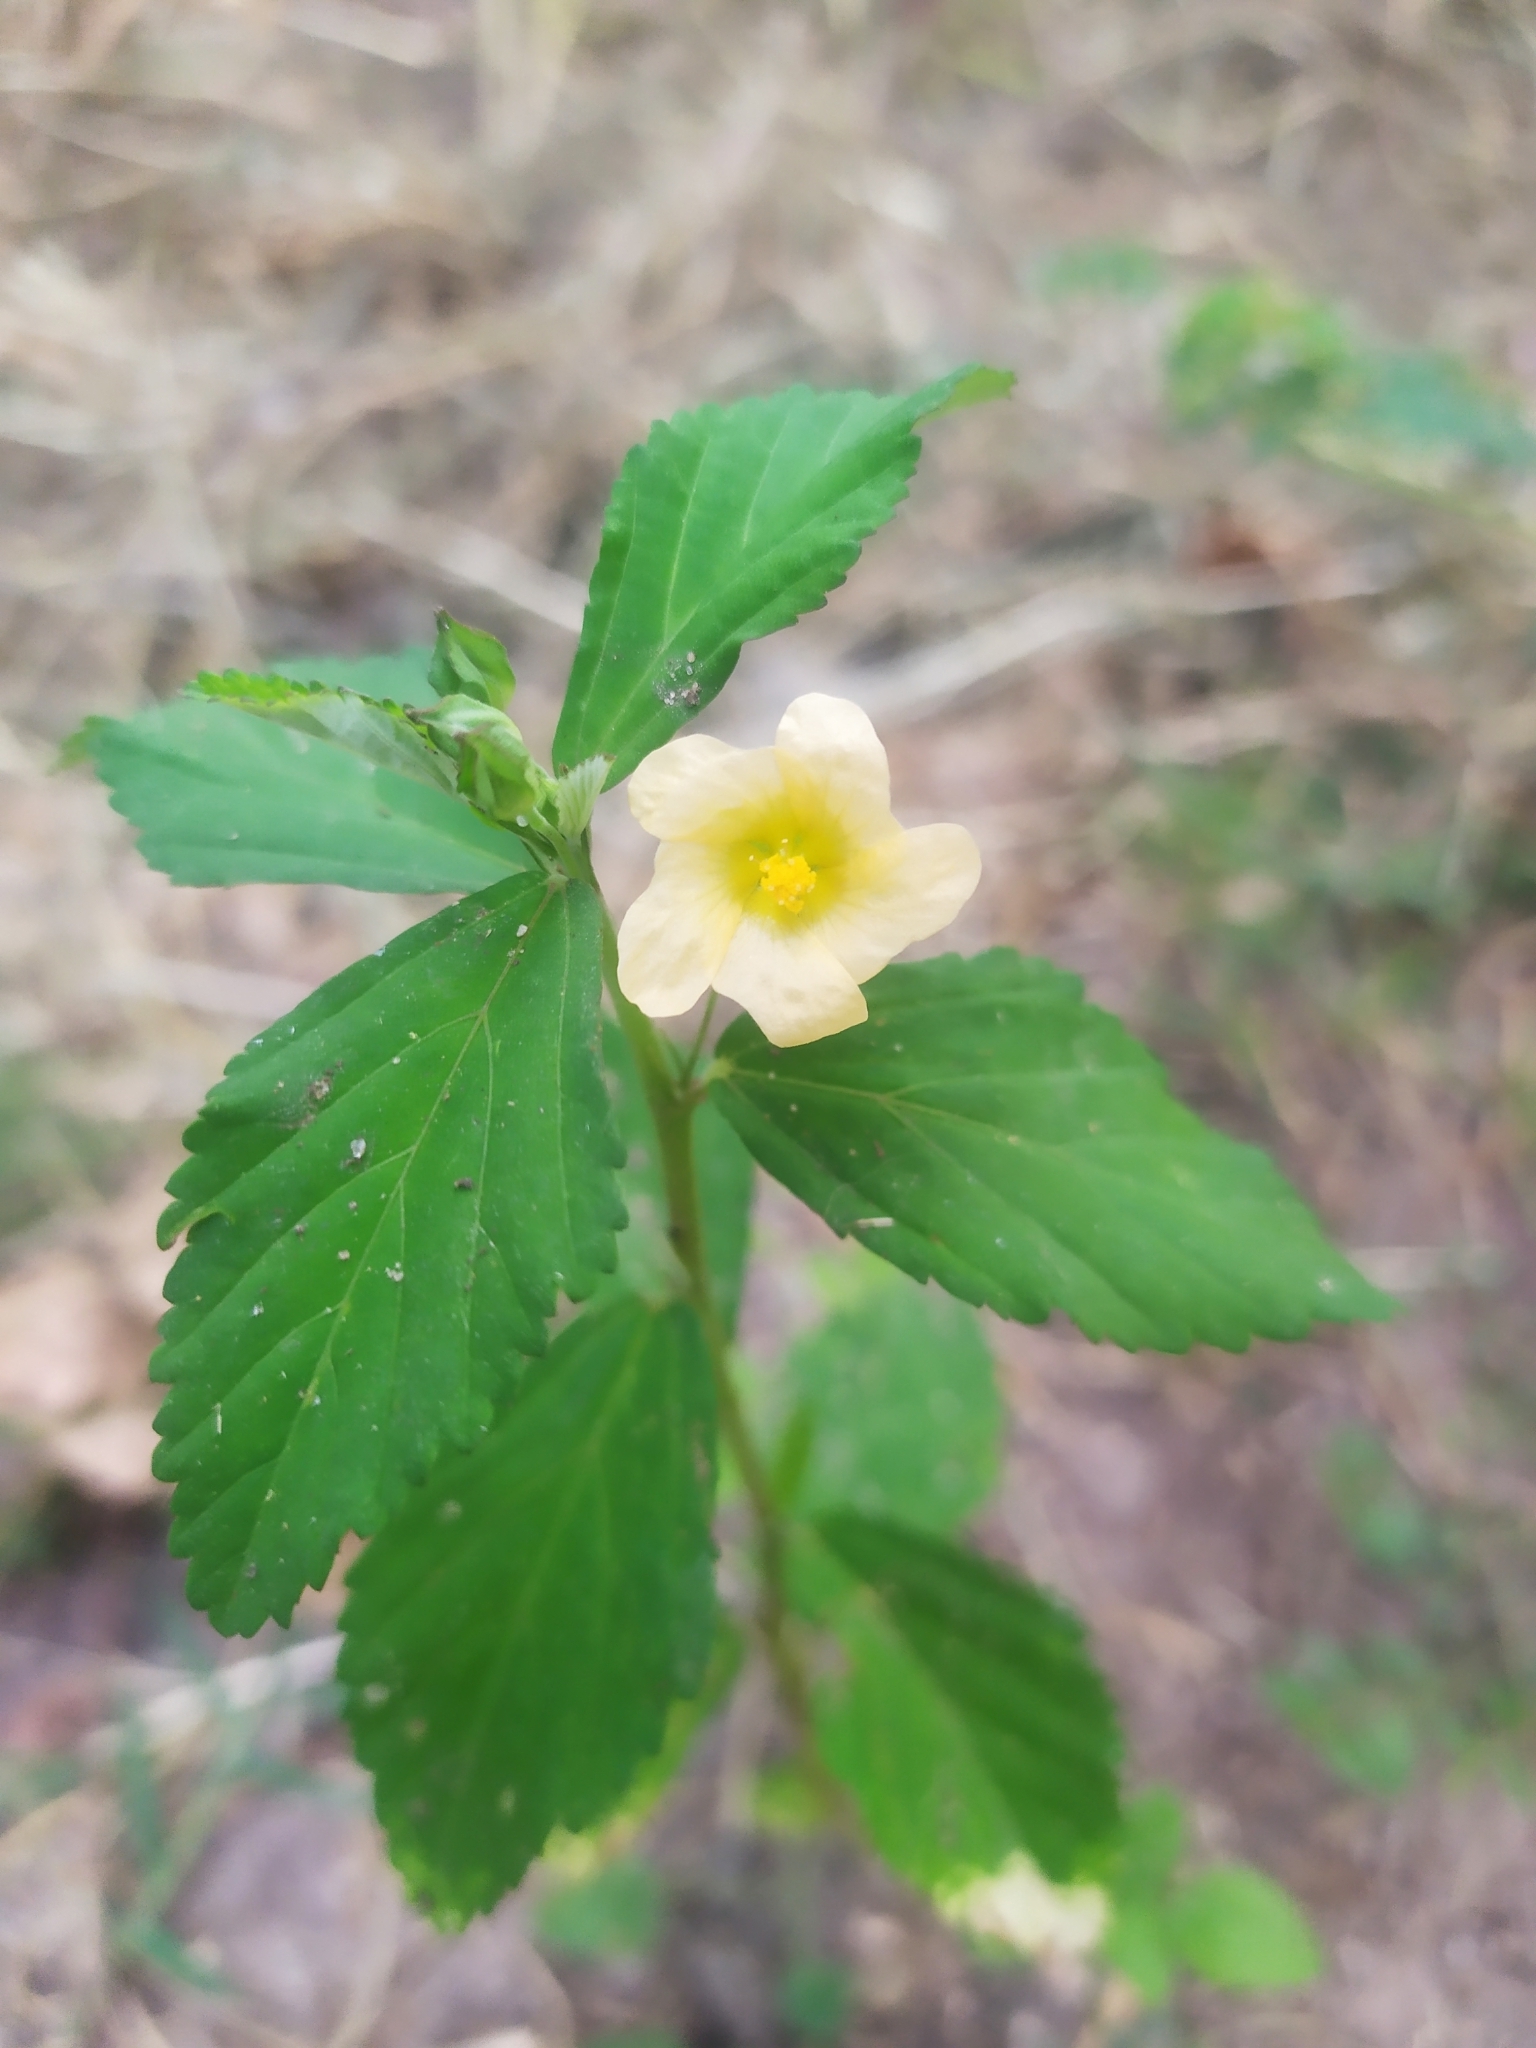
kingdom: Plantae
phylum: Tracheophyta
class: Magnoliopsida
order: Malvales
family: Malvaceae
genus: Sida
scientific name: Sida rhombifolia
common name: Queensland-hemp
